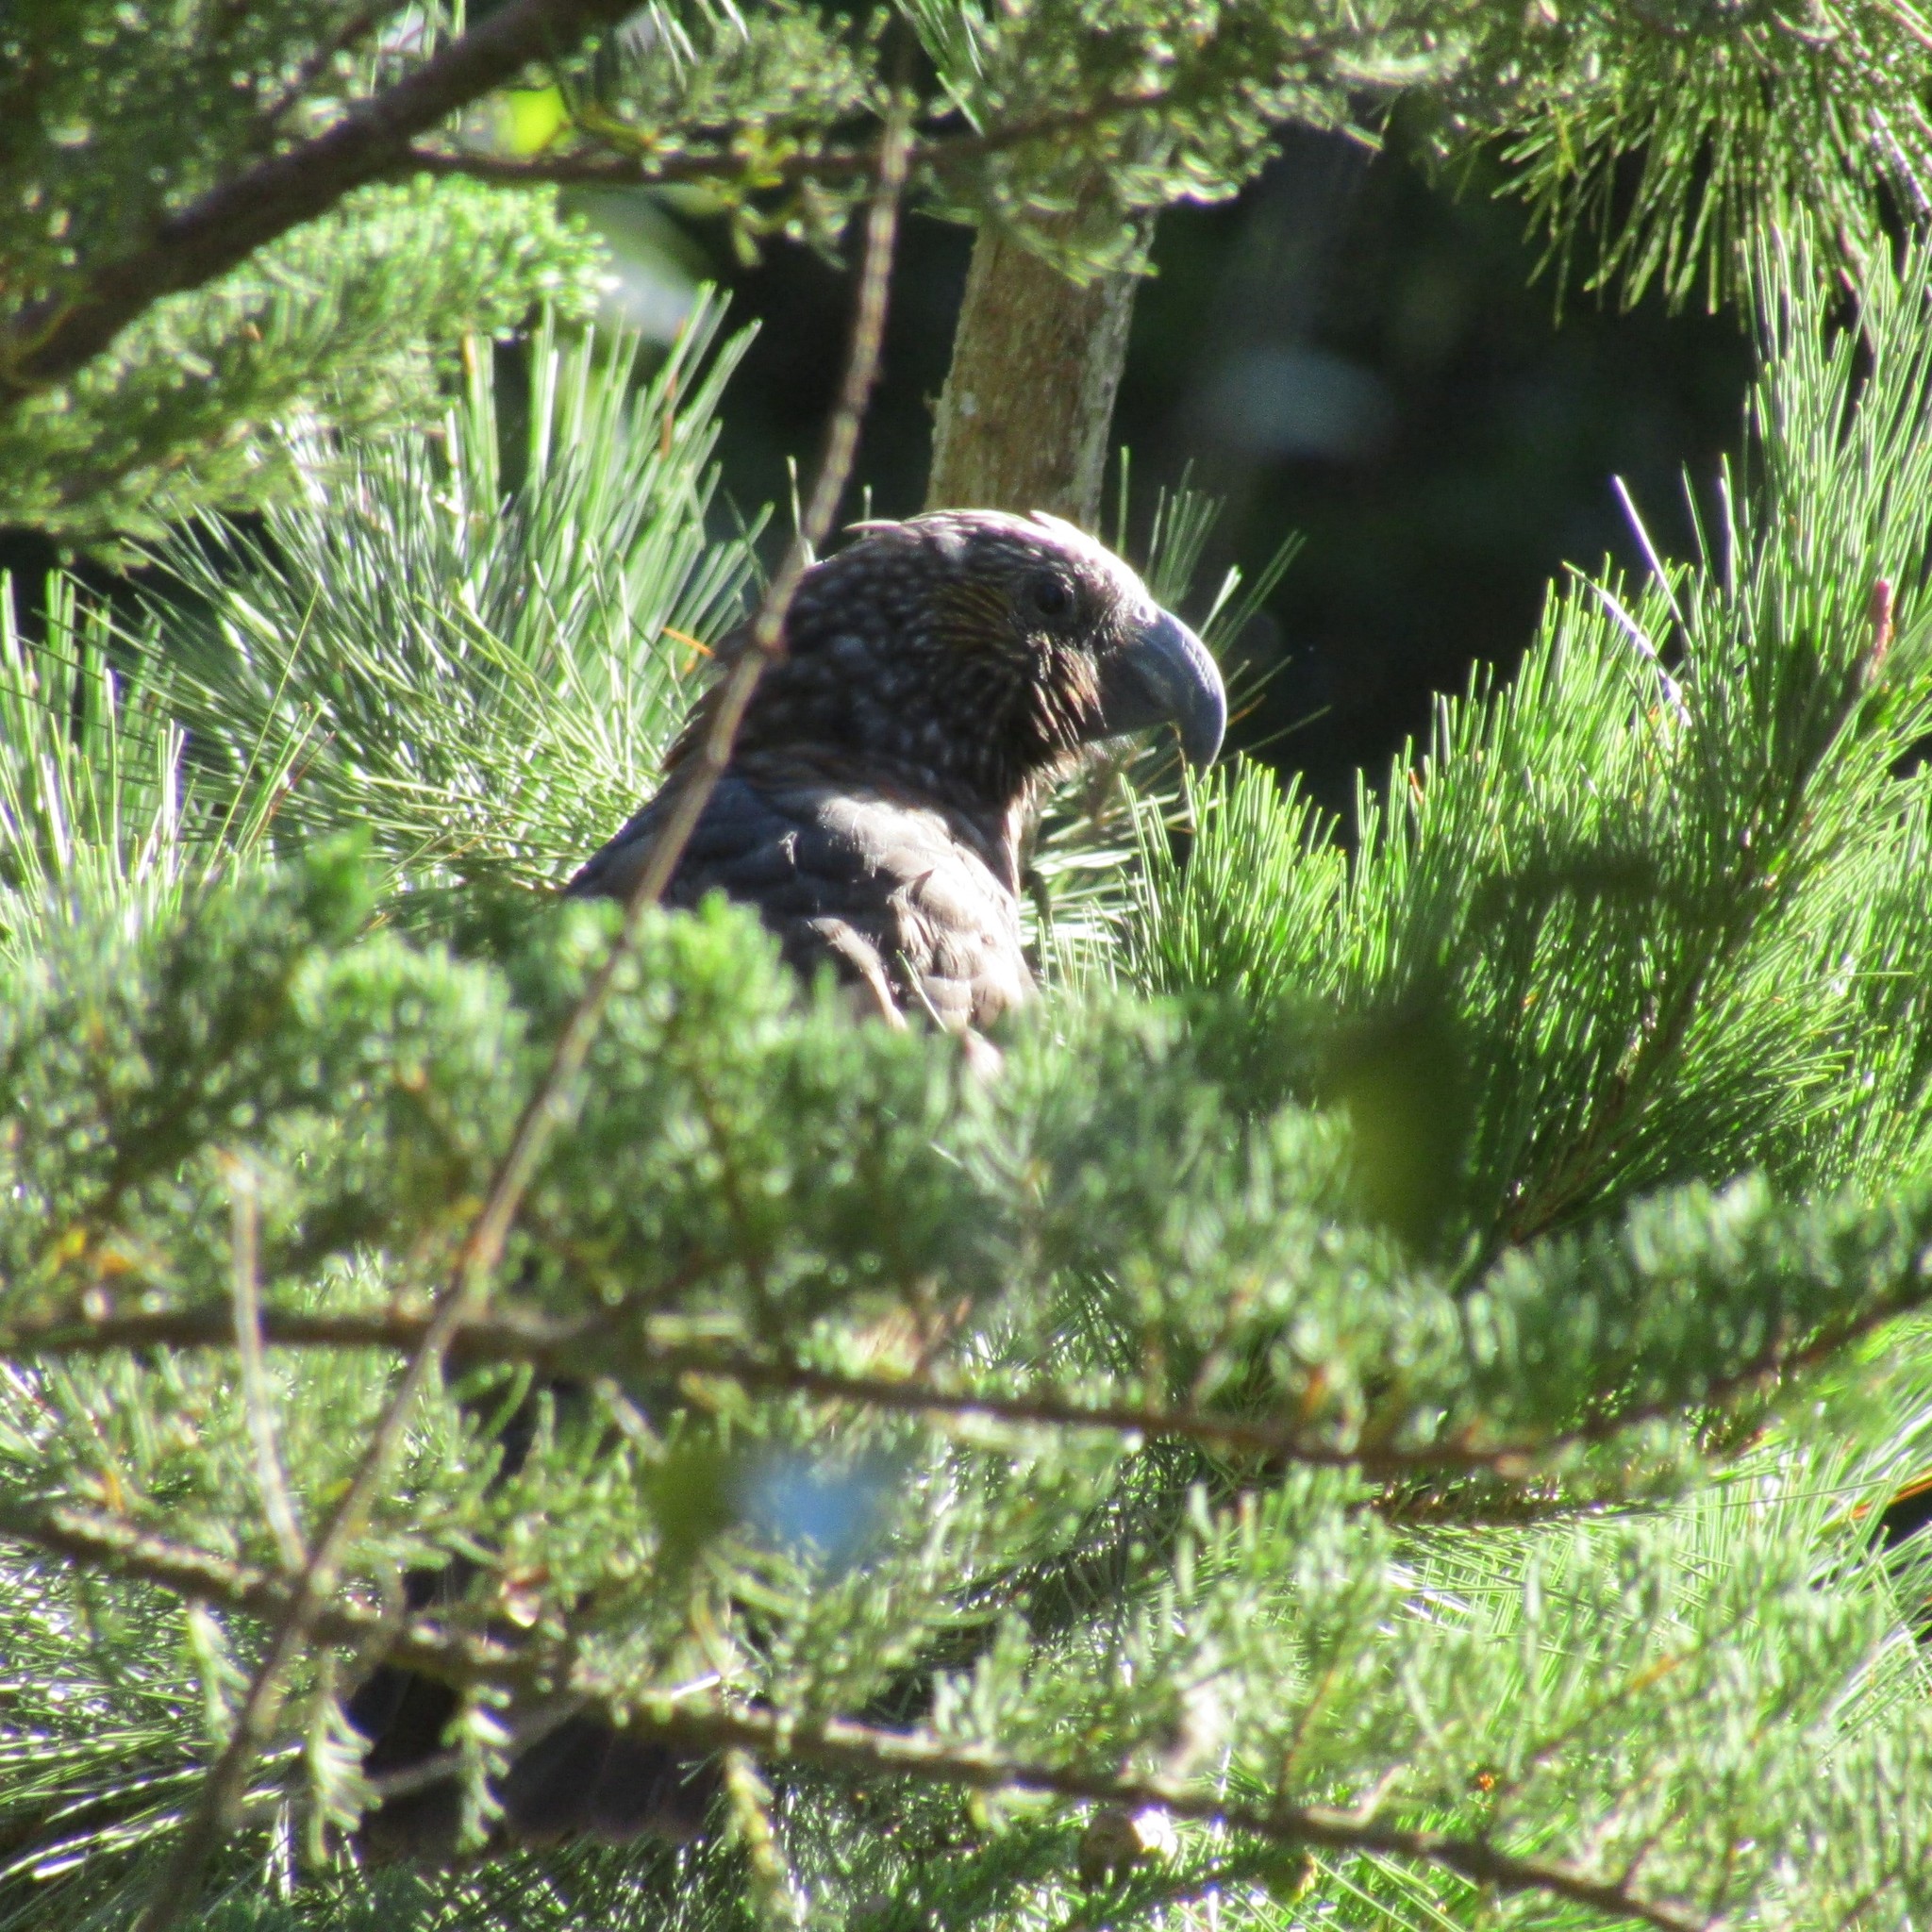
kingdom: Animalia
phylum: Chordata
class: Aves
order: Psittaciformes
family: Psittacidae
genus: Nestor
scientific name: Nestor meridionalis
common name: New zealand kaka
